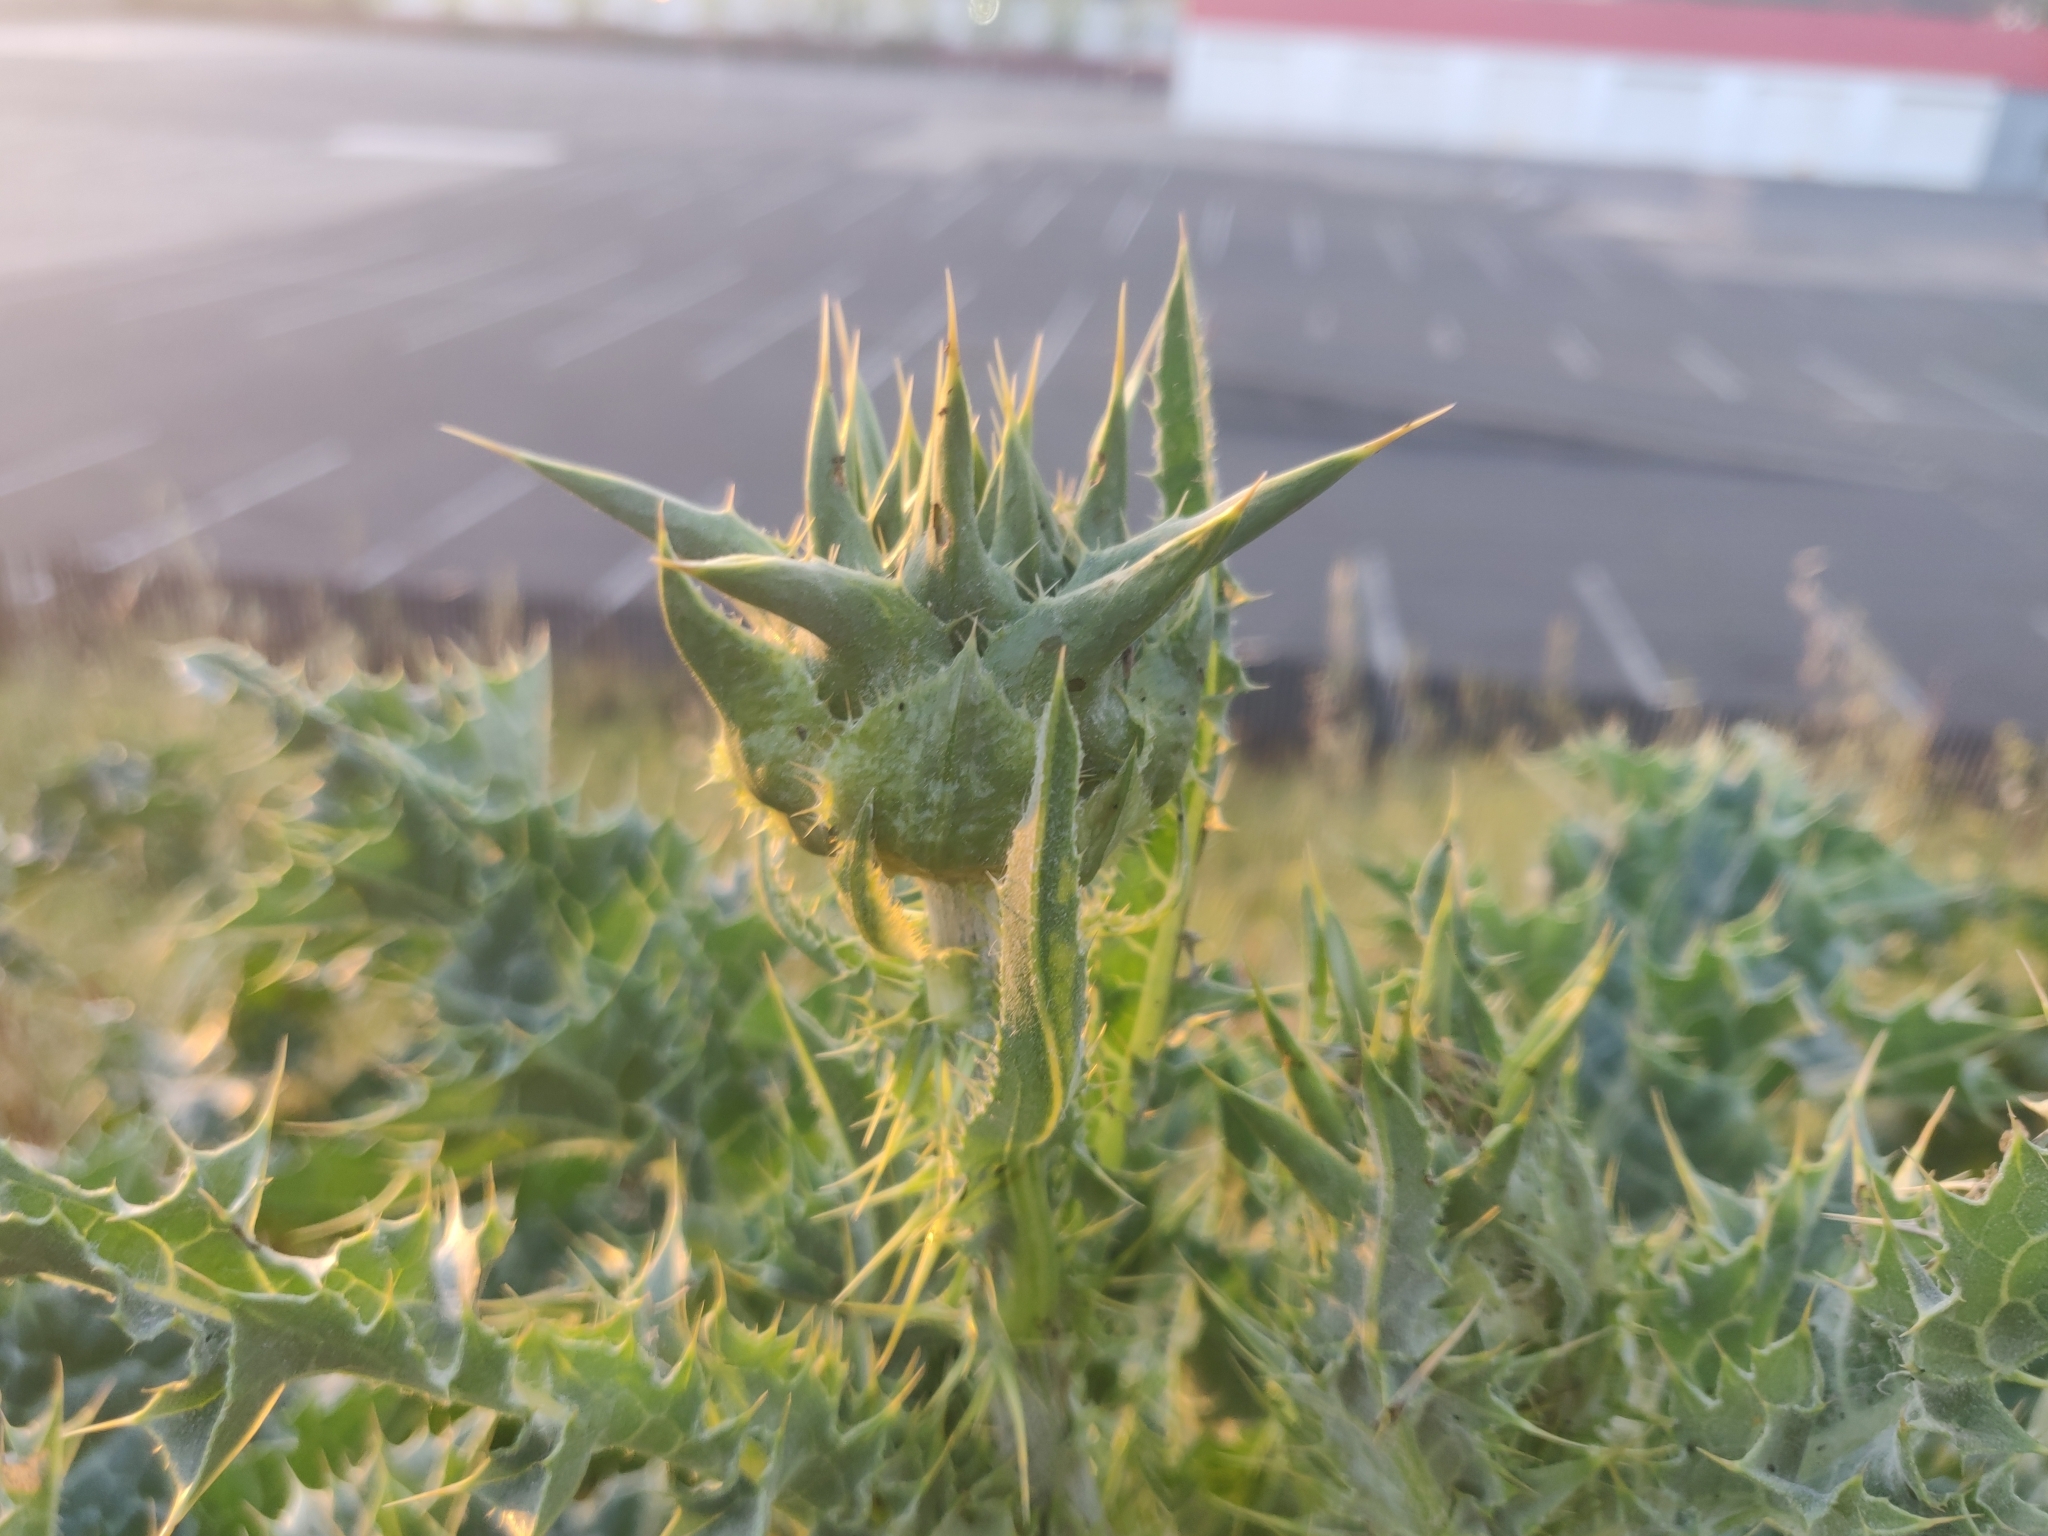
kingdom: Plantae
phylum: Tracheophyta
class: Magnoliopsida
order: Asterales
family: Asteraceae
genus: Silybum
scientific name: Silybum marianum
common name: Milk thistle
